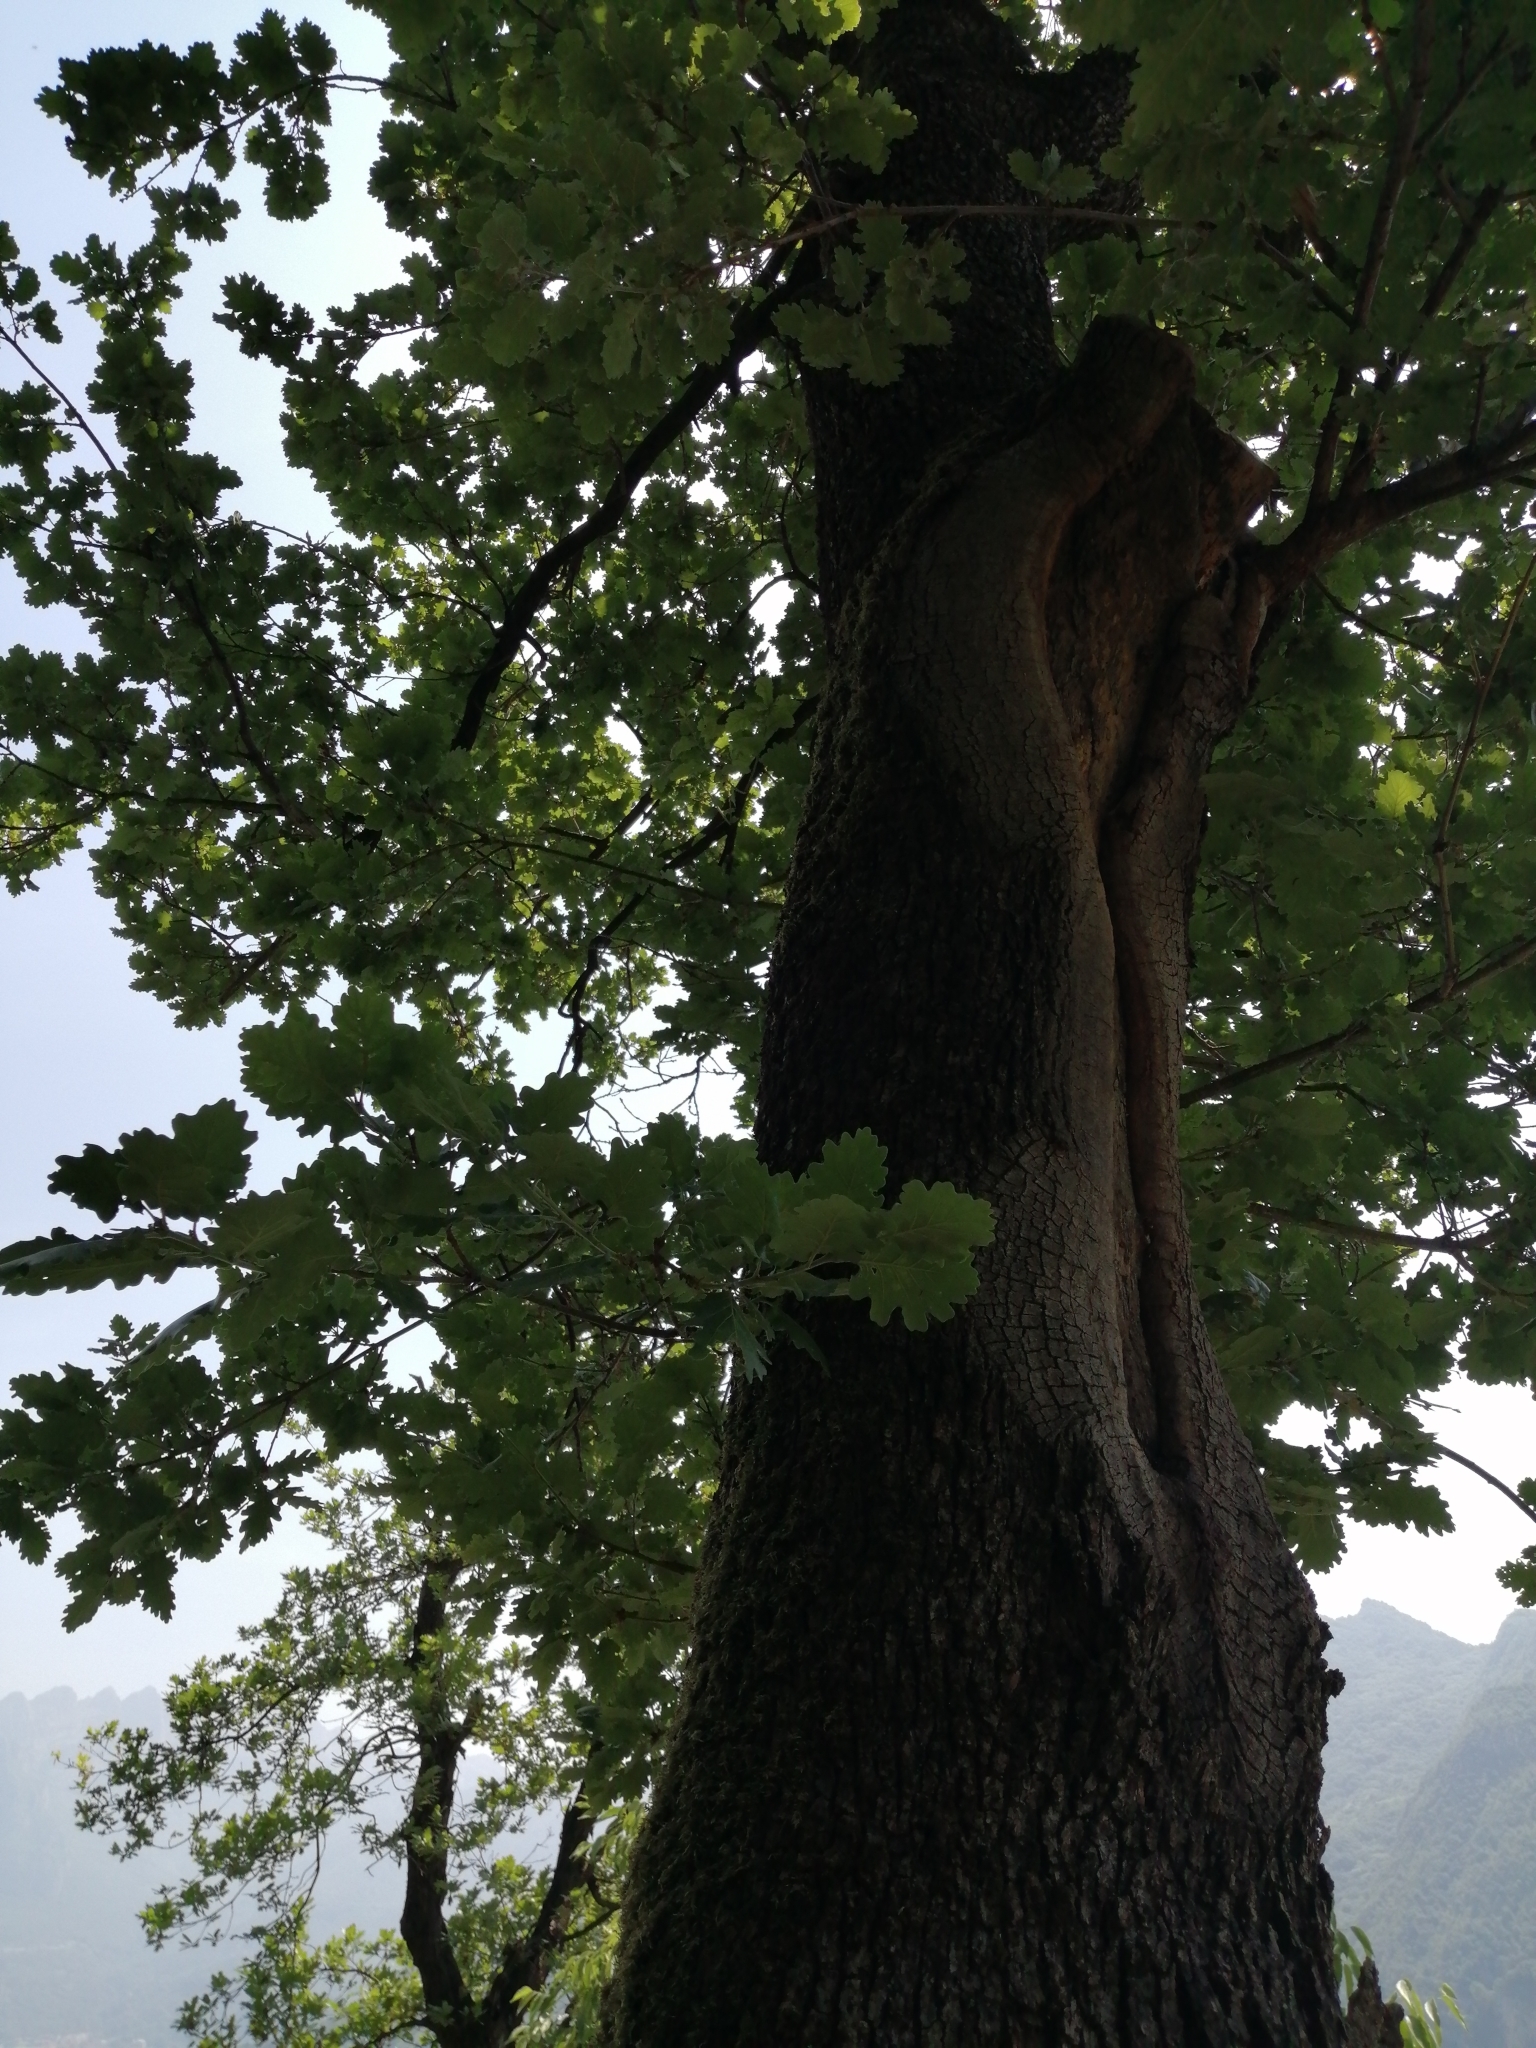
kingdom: Plantae
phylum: Tracheophyta
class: Magnoliopsida
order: Fagales
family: Fagaceae
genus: Quercus
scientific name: Quercus pubescens
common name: Downy oak
